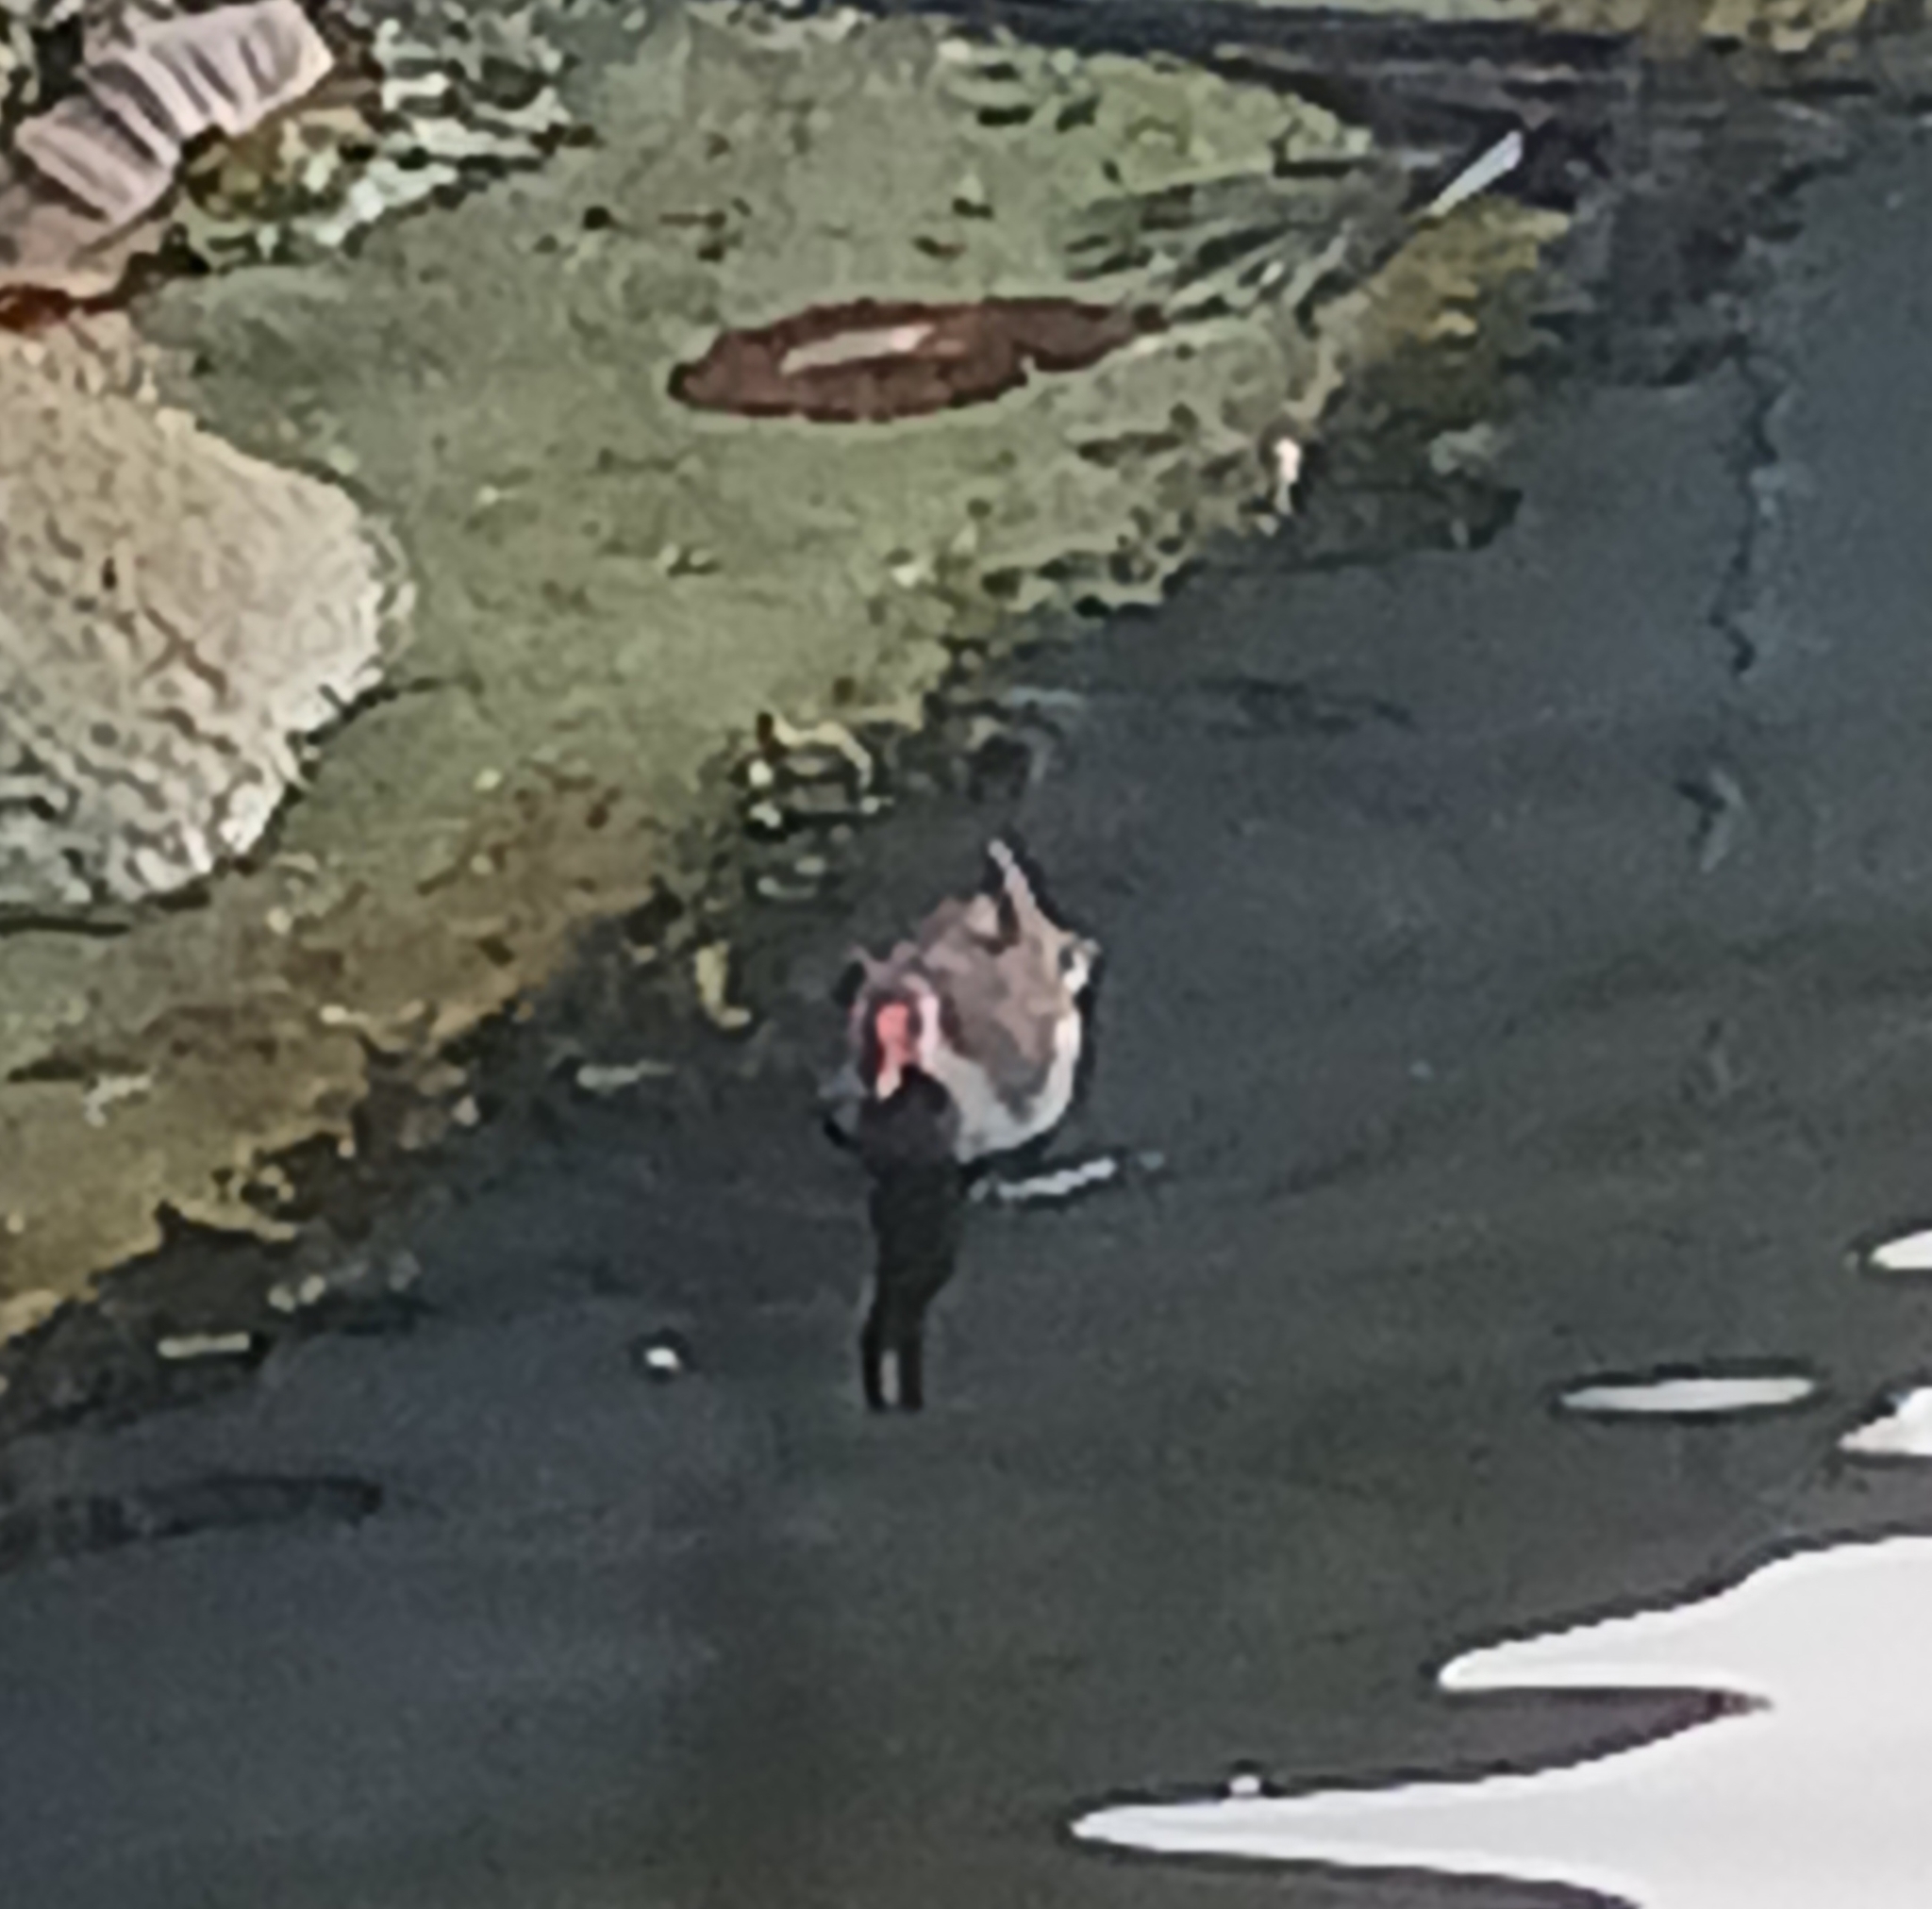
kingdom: Animalia
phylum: Chordata
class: Aves
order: Gruiformes
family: Rallidae
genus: Gallinula
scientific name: Gallinula chloropus
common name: Common moorhen
